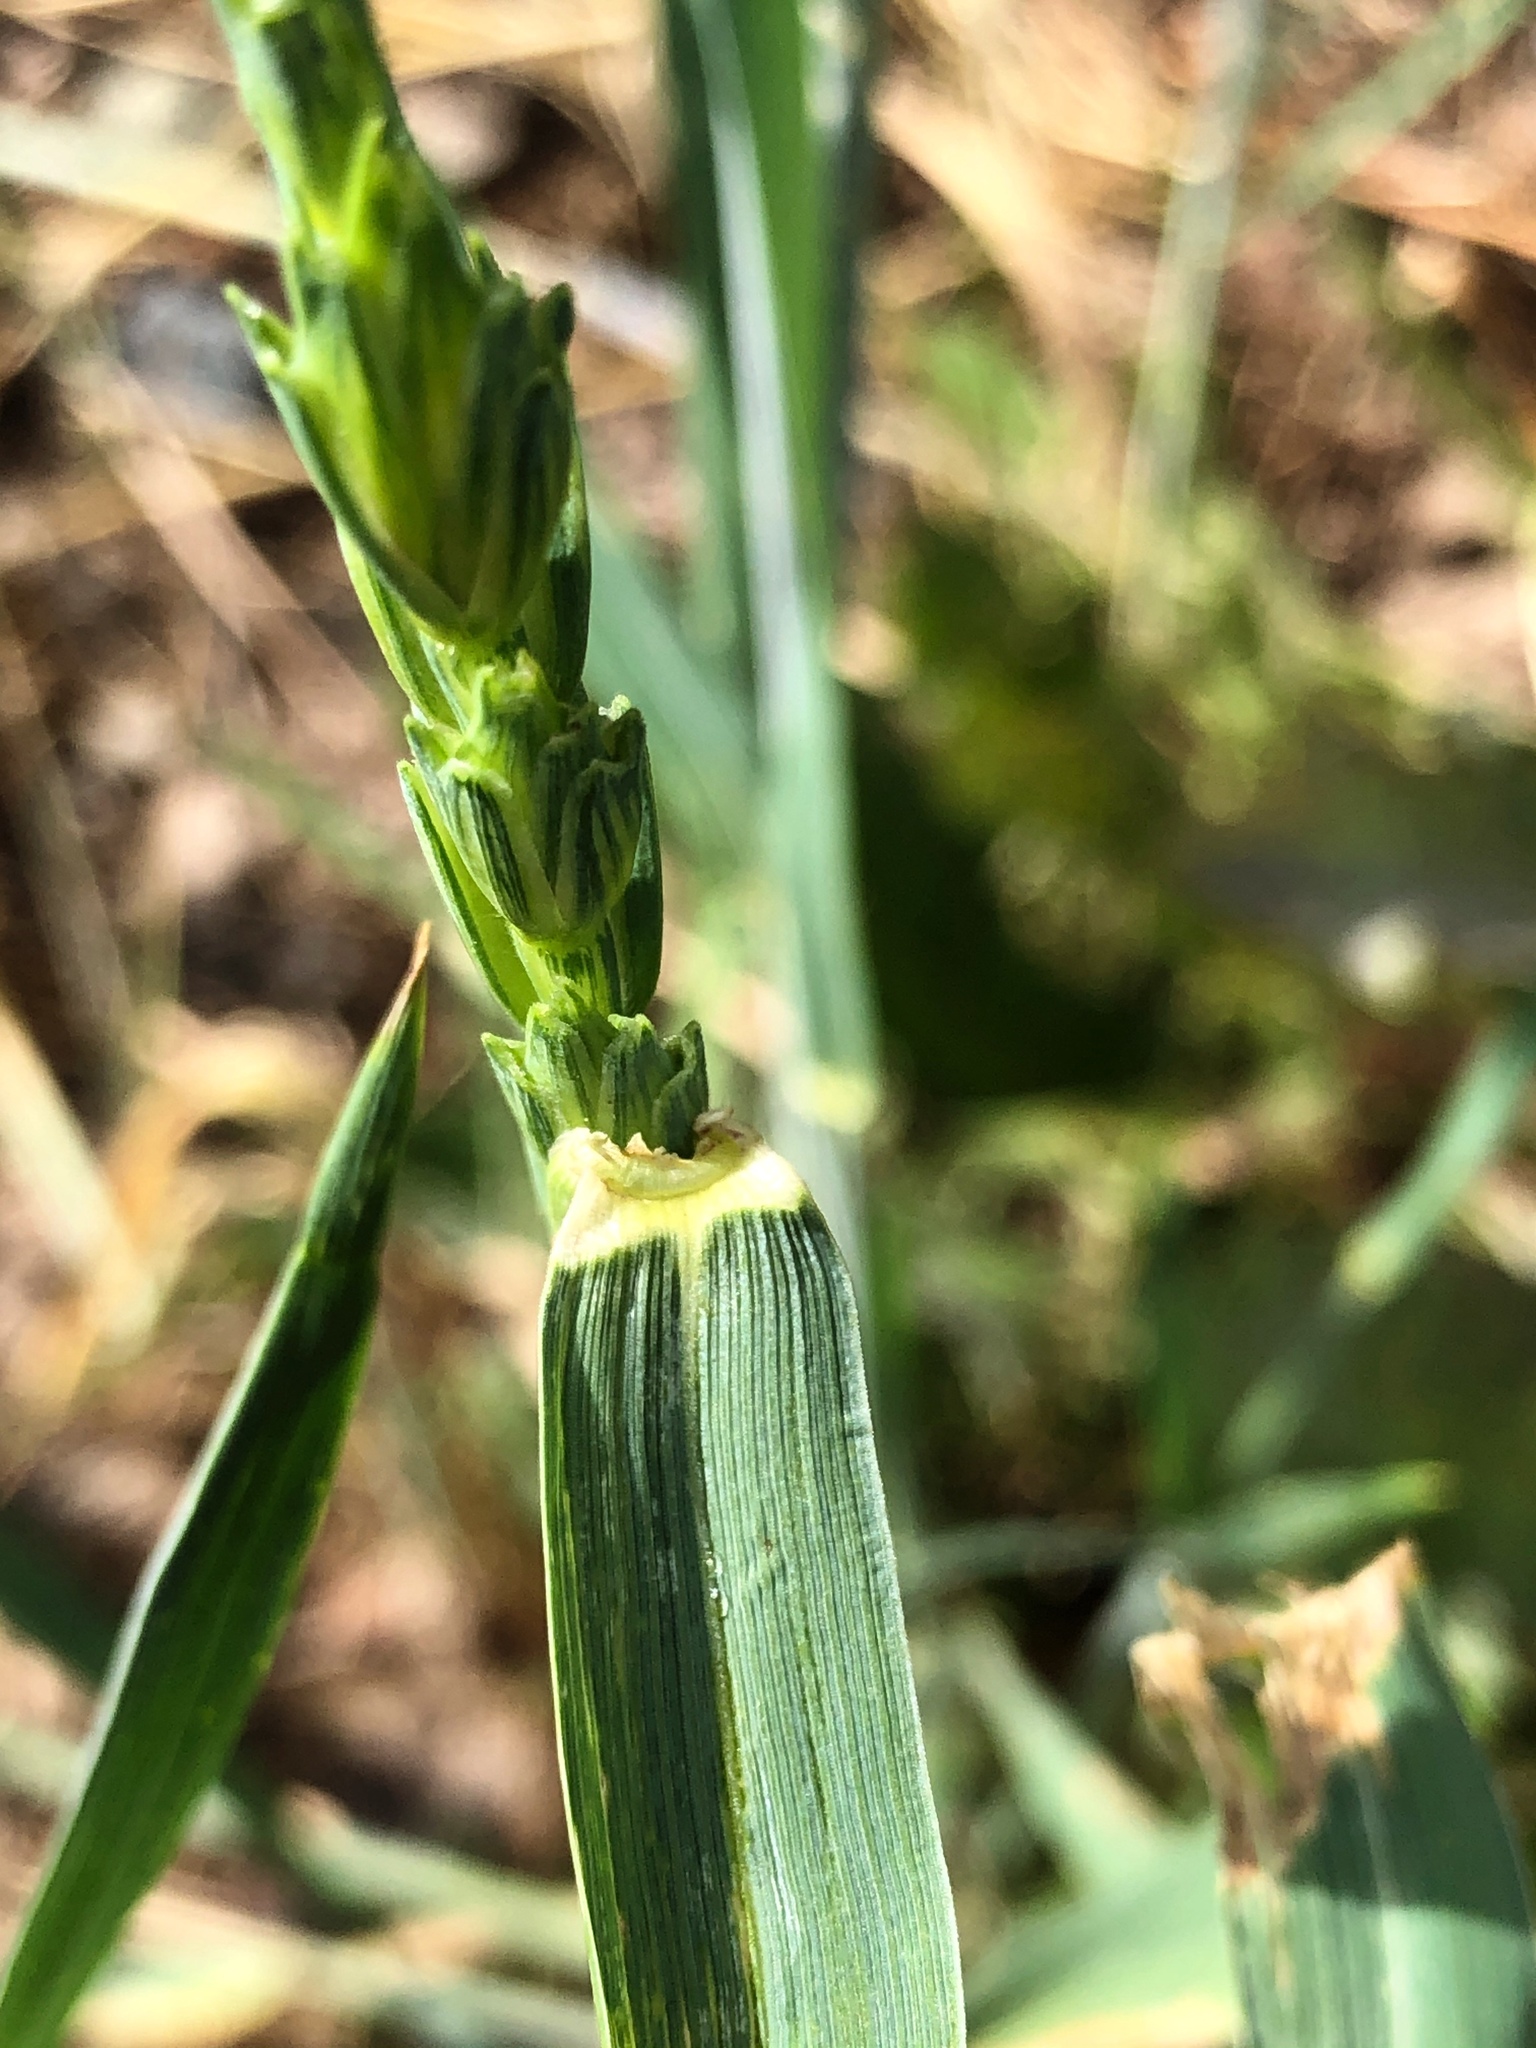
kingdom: Plantae
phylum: Tracheophyta
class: Liliopsida
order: Poales
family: Poaceae
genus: Triticum
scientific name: Triticum aestivum
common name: Common wheat
